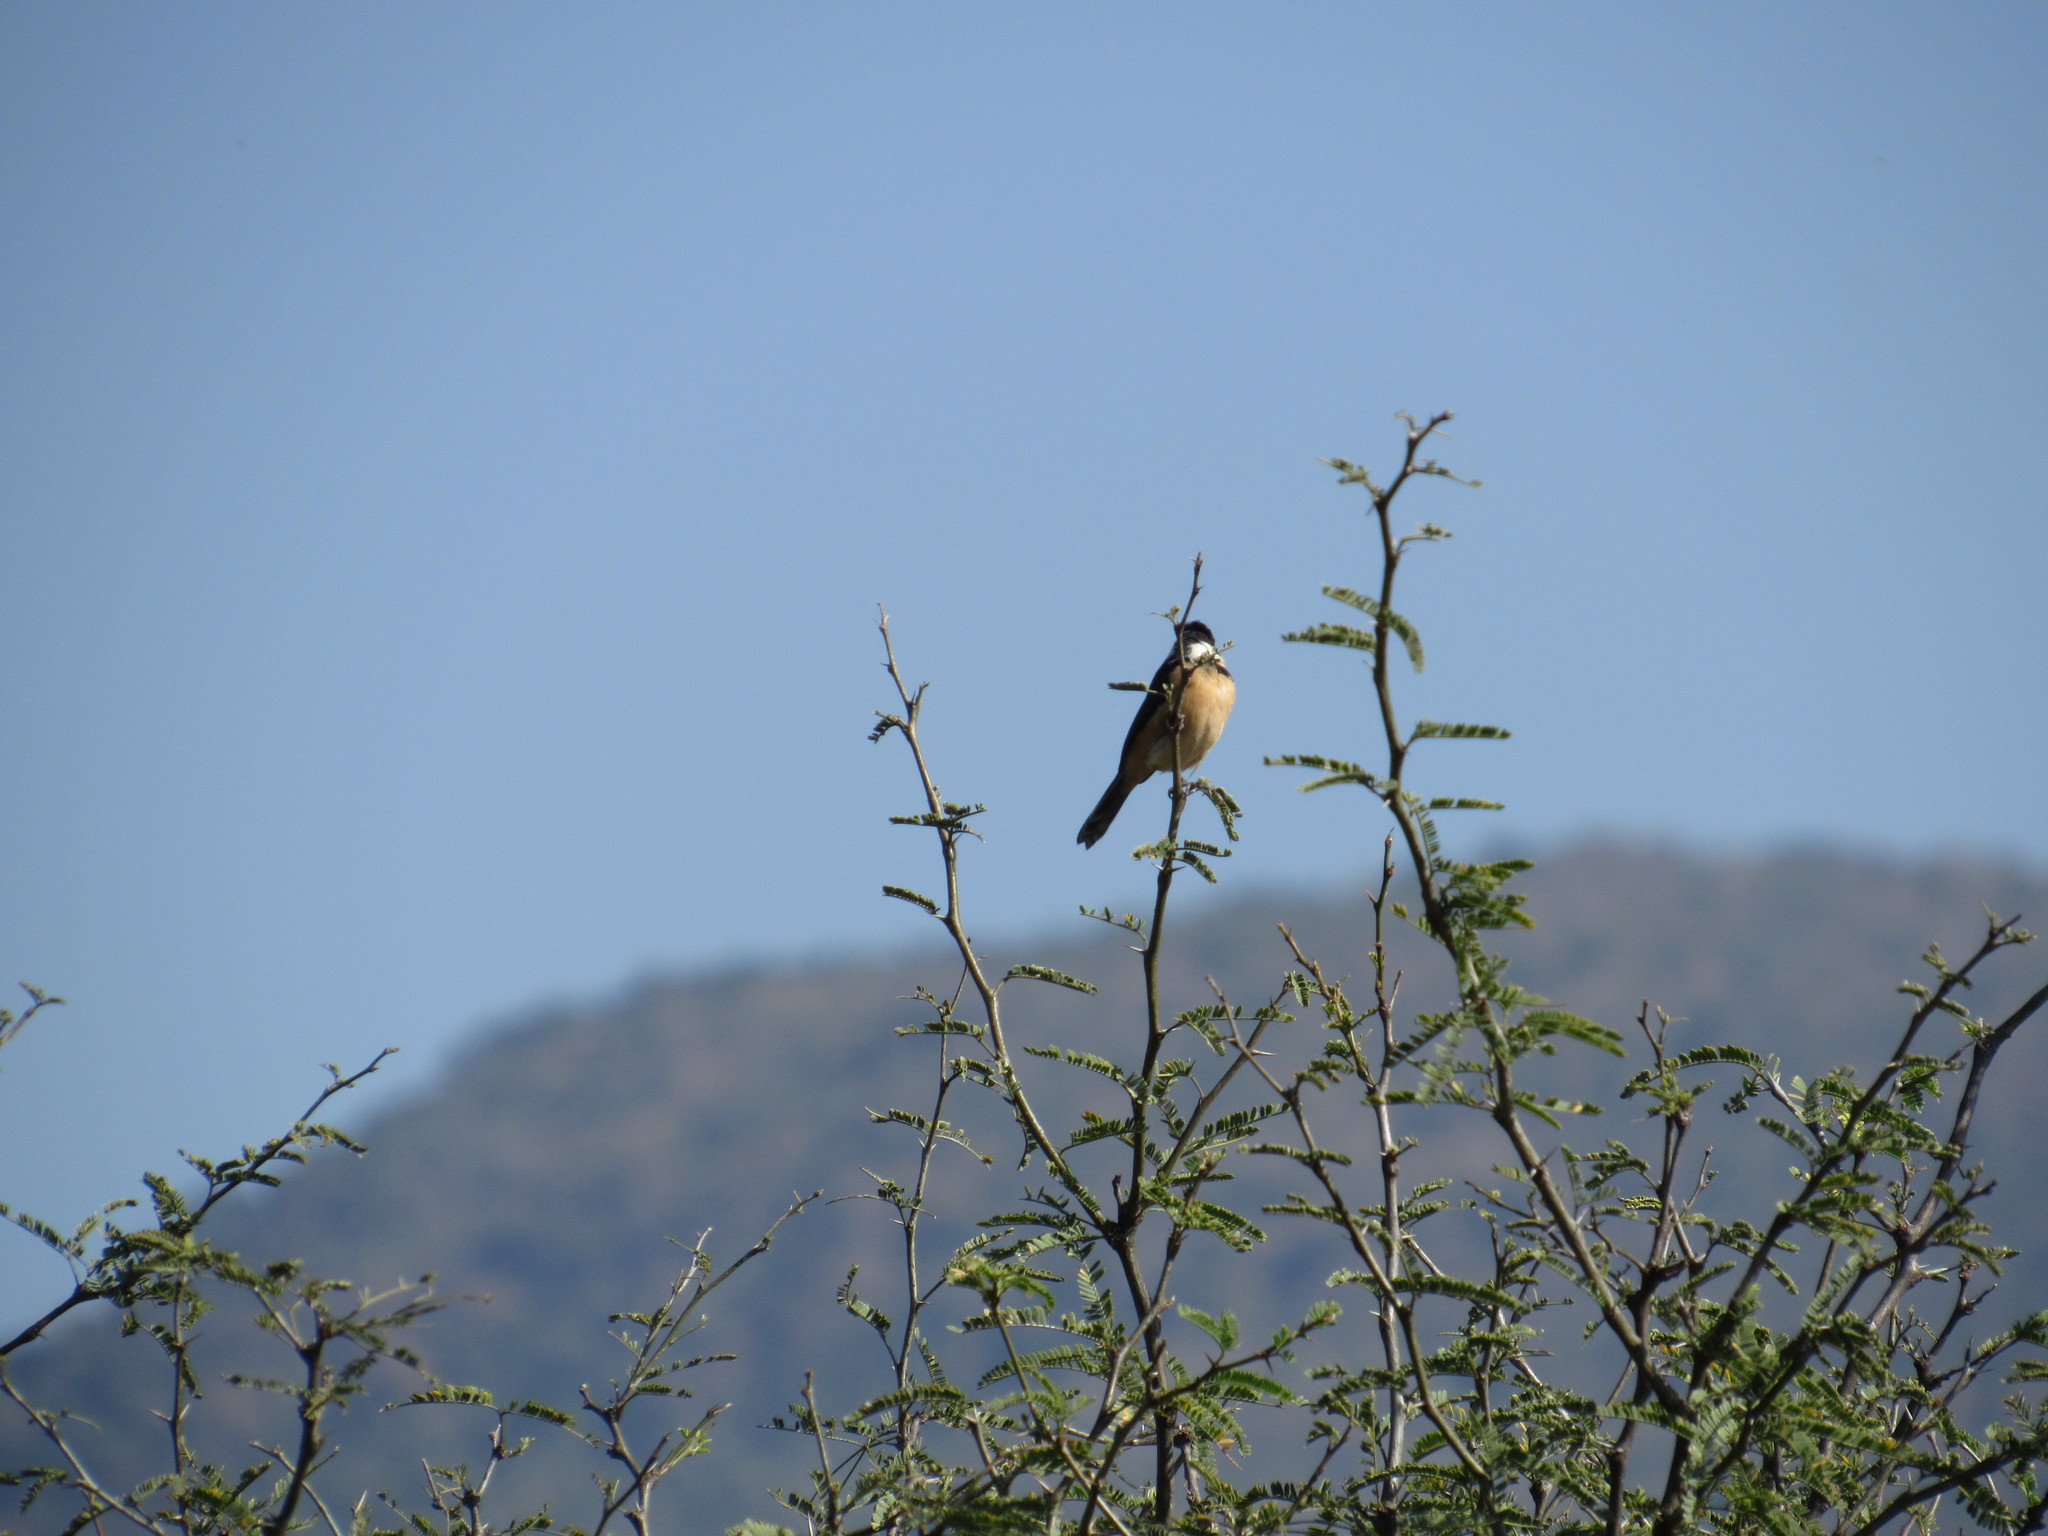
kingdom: Animalia
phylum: Chordata
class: Aves
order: Passeriformes
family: Thraupidae
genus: Sporophila
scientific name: Sporophila torqueola
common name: White-collared seedeater
